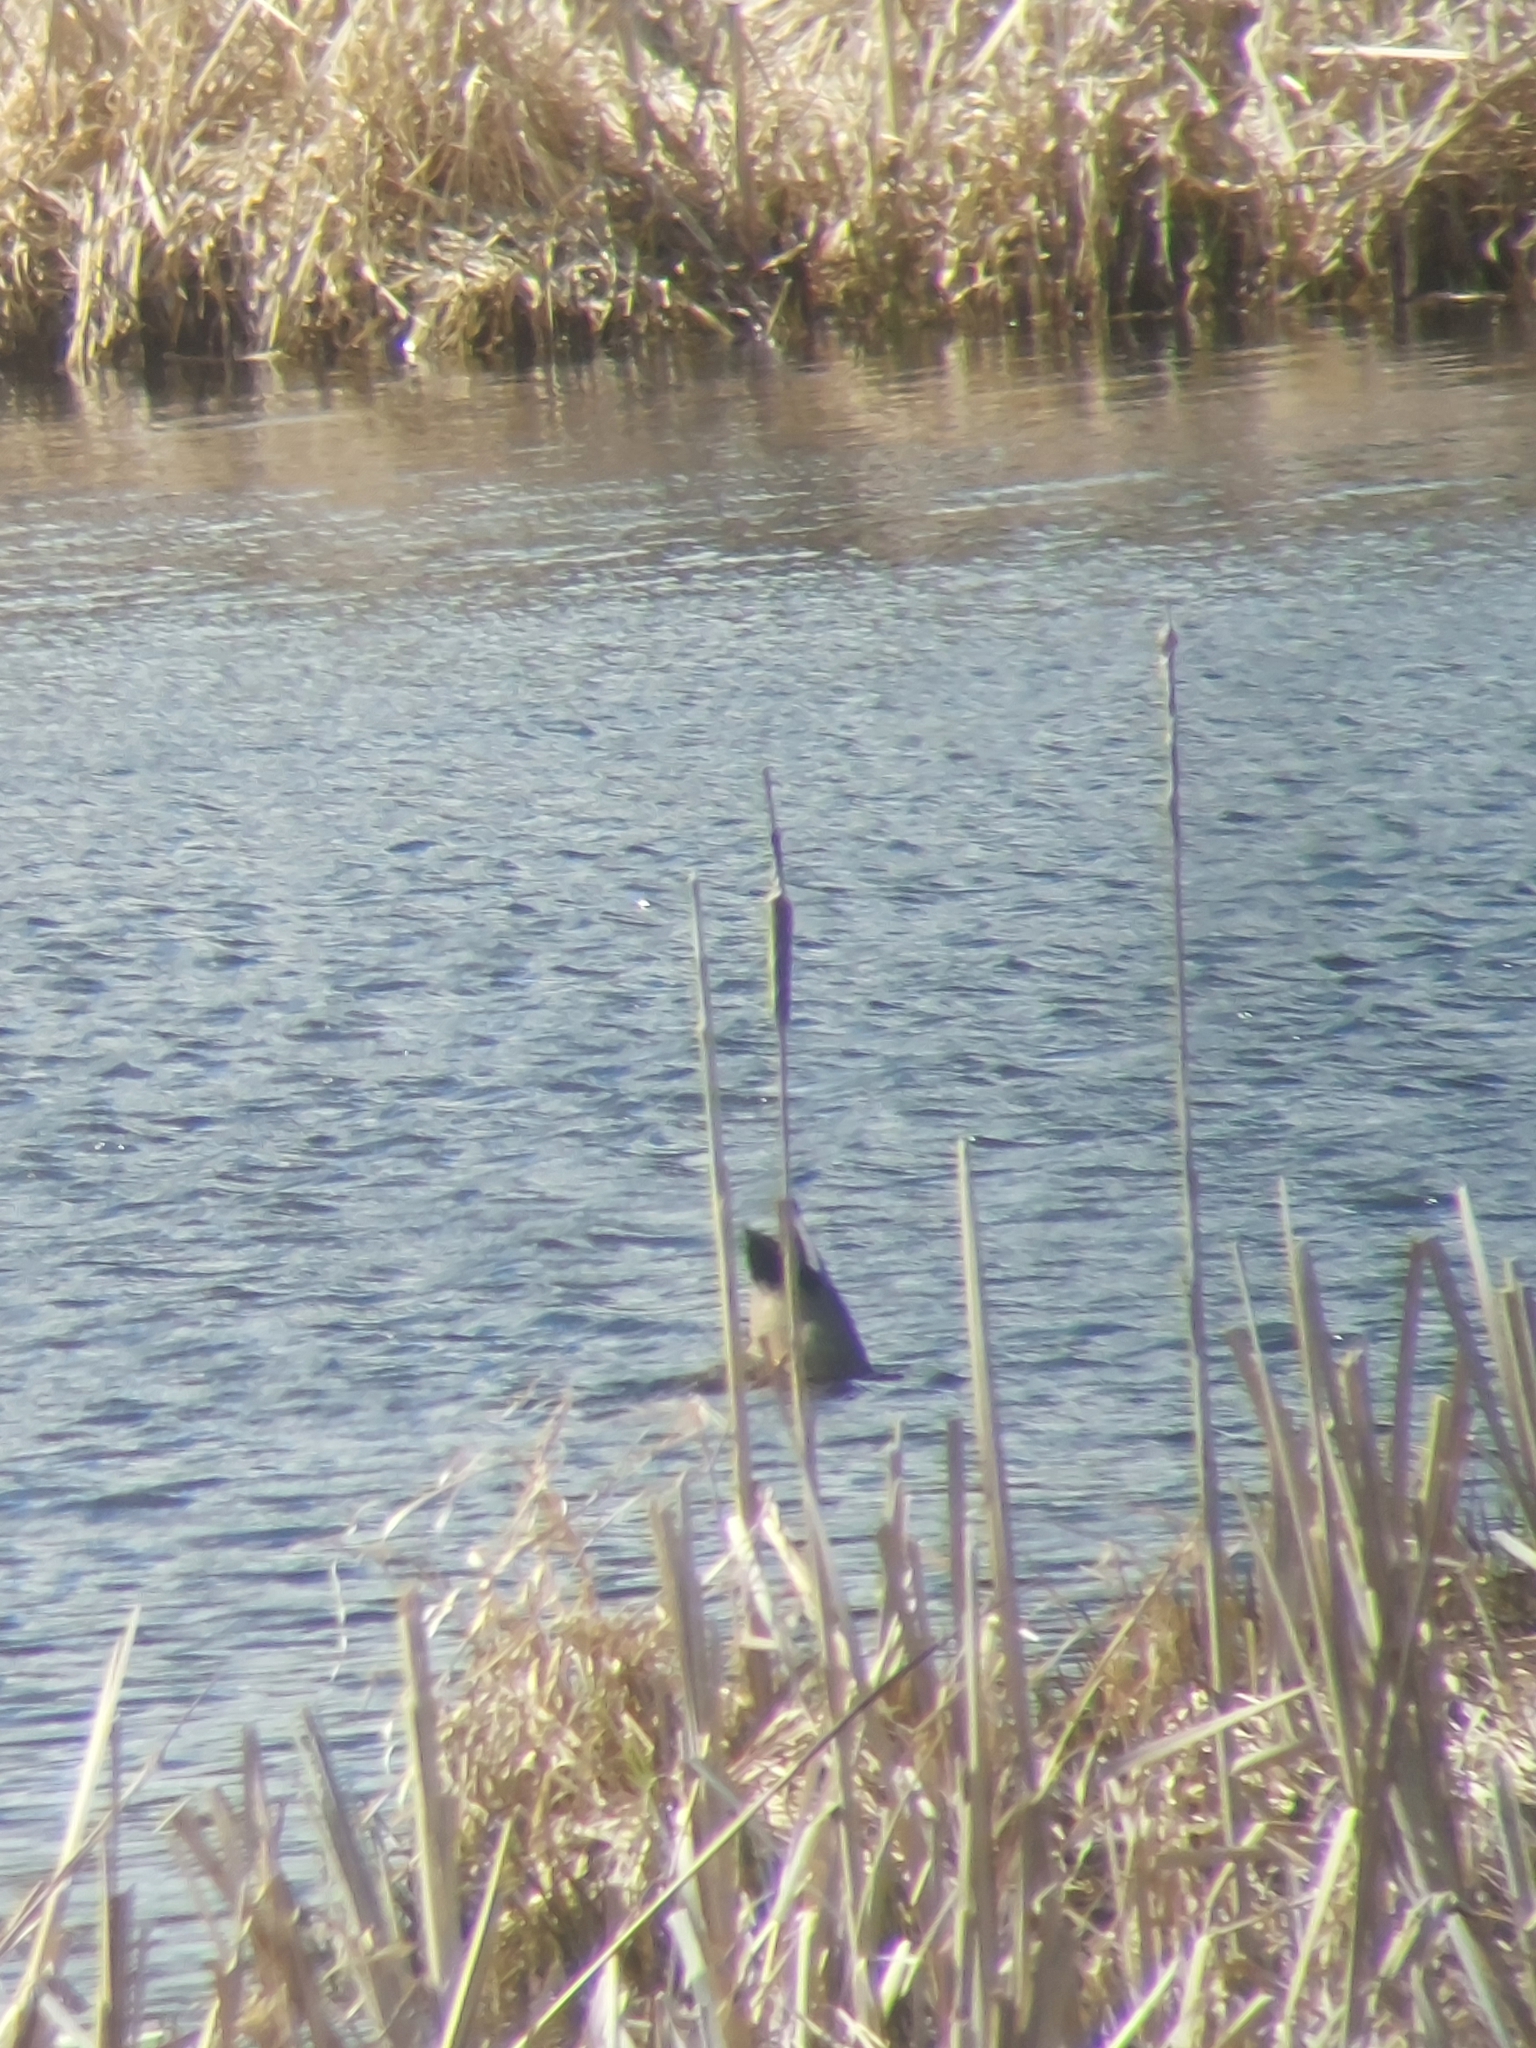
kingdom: Animalia
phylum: Chordata
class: Aves
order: Anseriformes
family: Anatidae
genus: Mareca
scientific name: Mareca strepera
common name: Gadwall
